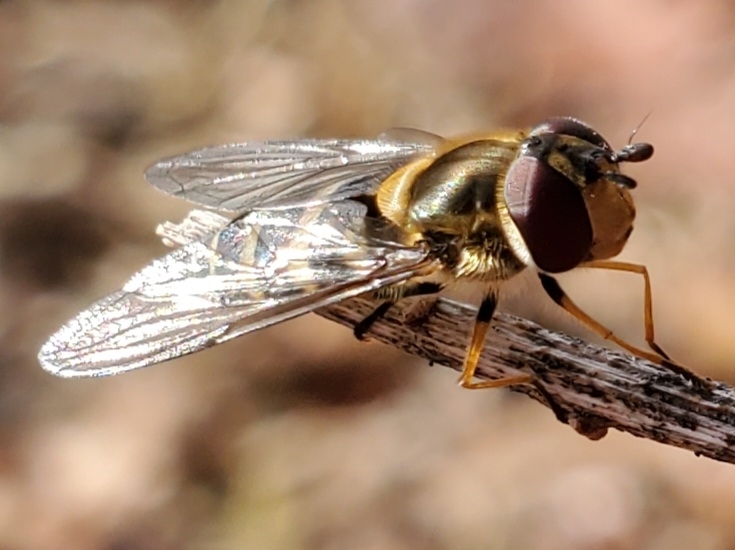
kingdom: Animalia
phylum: Arthropoda
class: Insecta
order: Diptera
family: Syrphidae
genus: Syrphus
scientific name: Syrphus torvus
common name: Hairy-eyed flower fly
